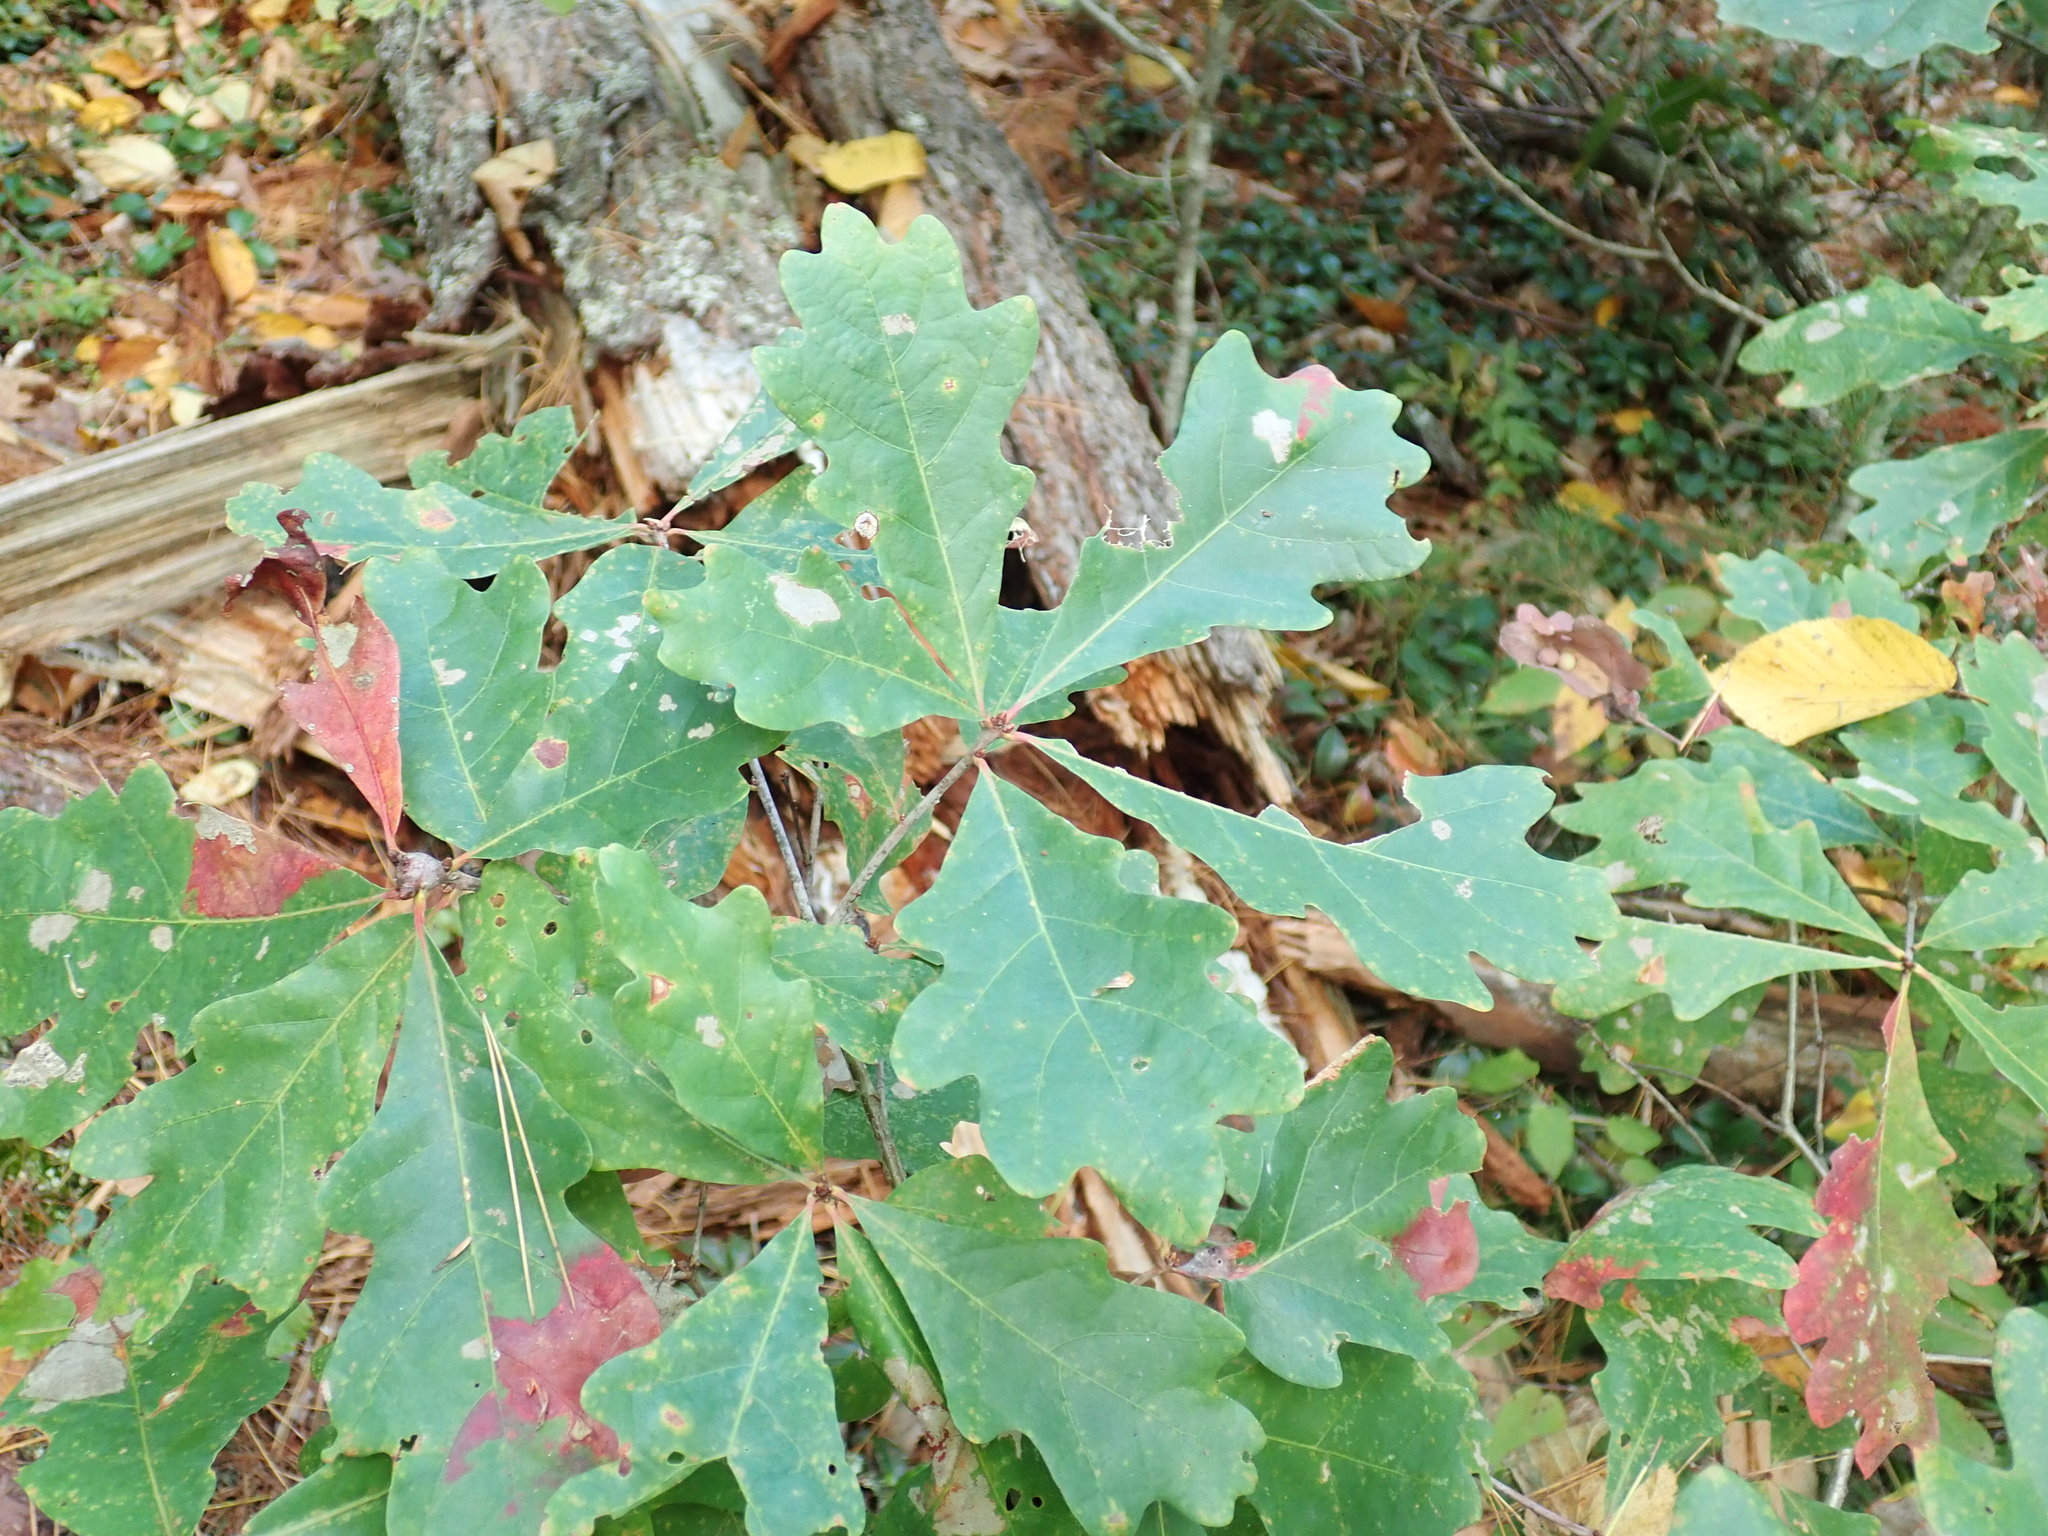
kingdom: Plantae
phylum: Tracheophyta
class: Magnoliopsida
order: Fagales
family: Fagaceae
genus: Quercus
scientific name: Quercus alba
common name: White oak
